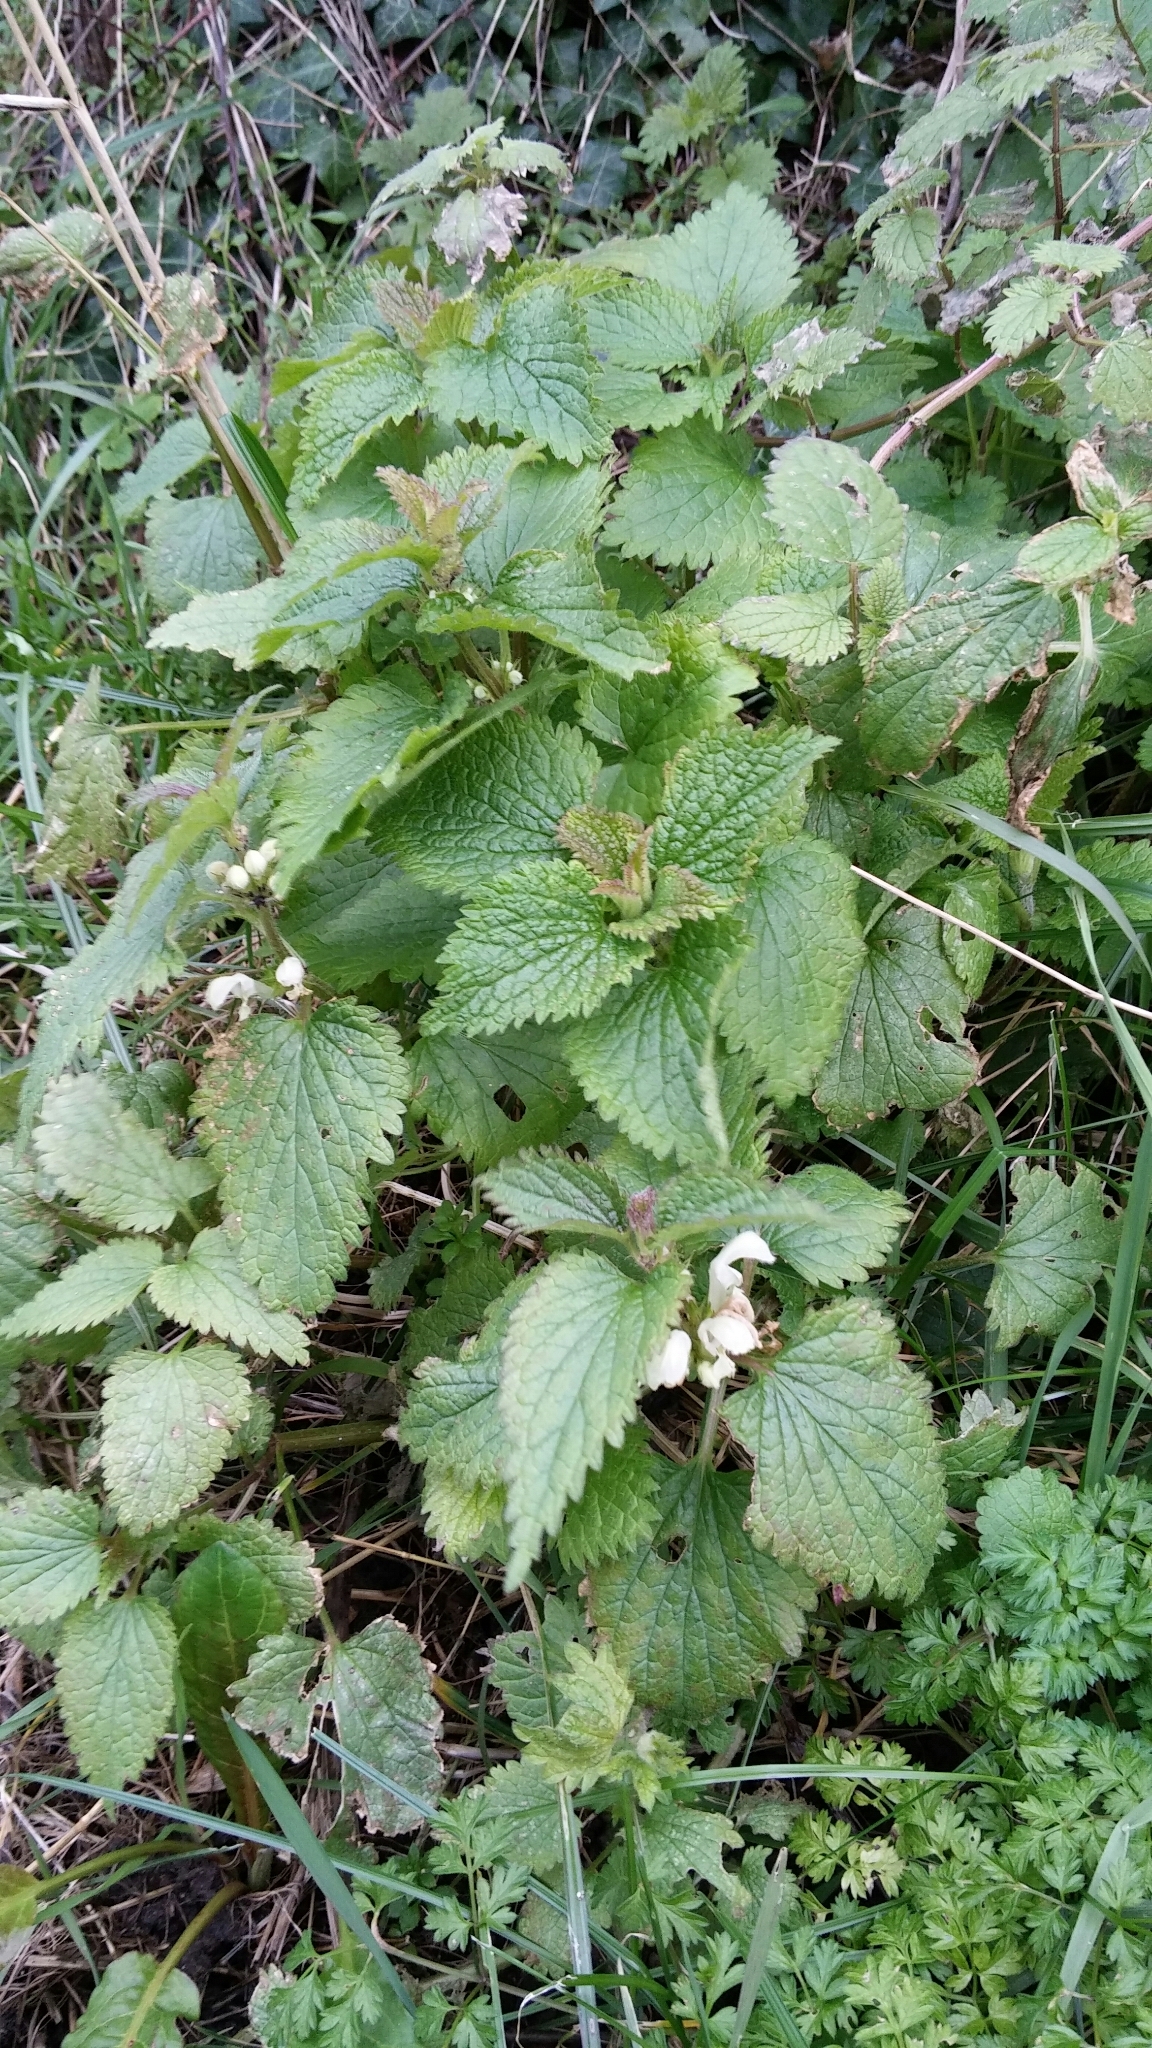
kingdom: Plantae
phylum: Tracheophyta
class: Magnoliopsida
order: Lamiales
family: Lamiaceae
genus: Lamium
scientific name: Lamium album
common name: White dead-nettle
